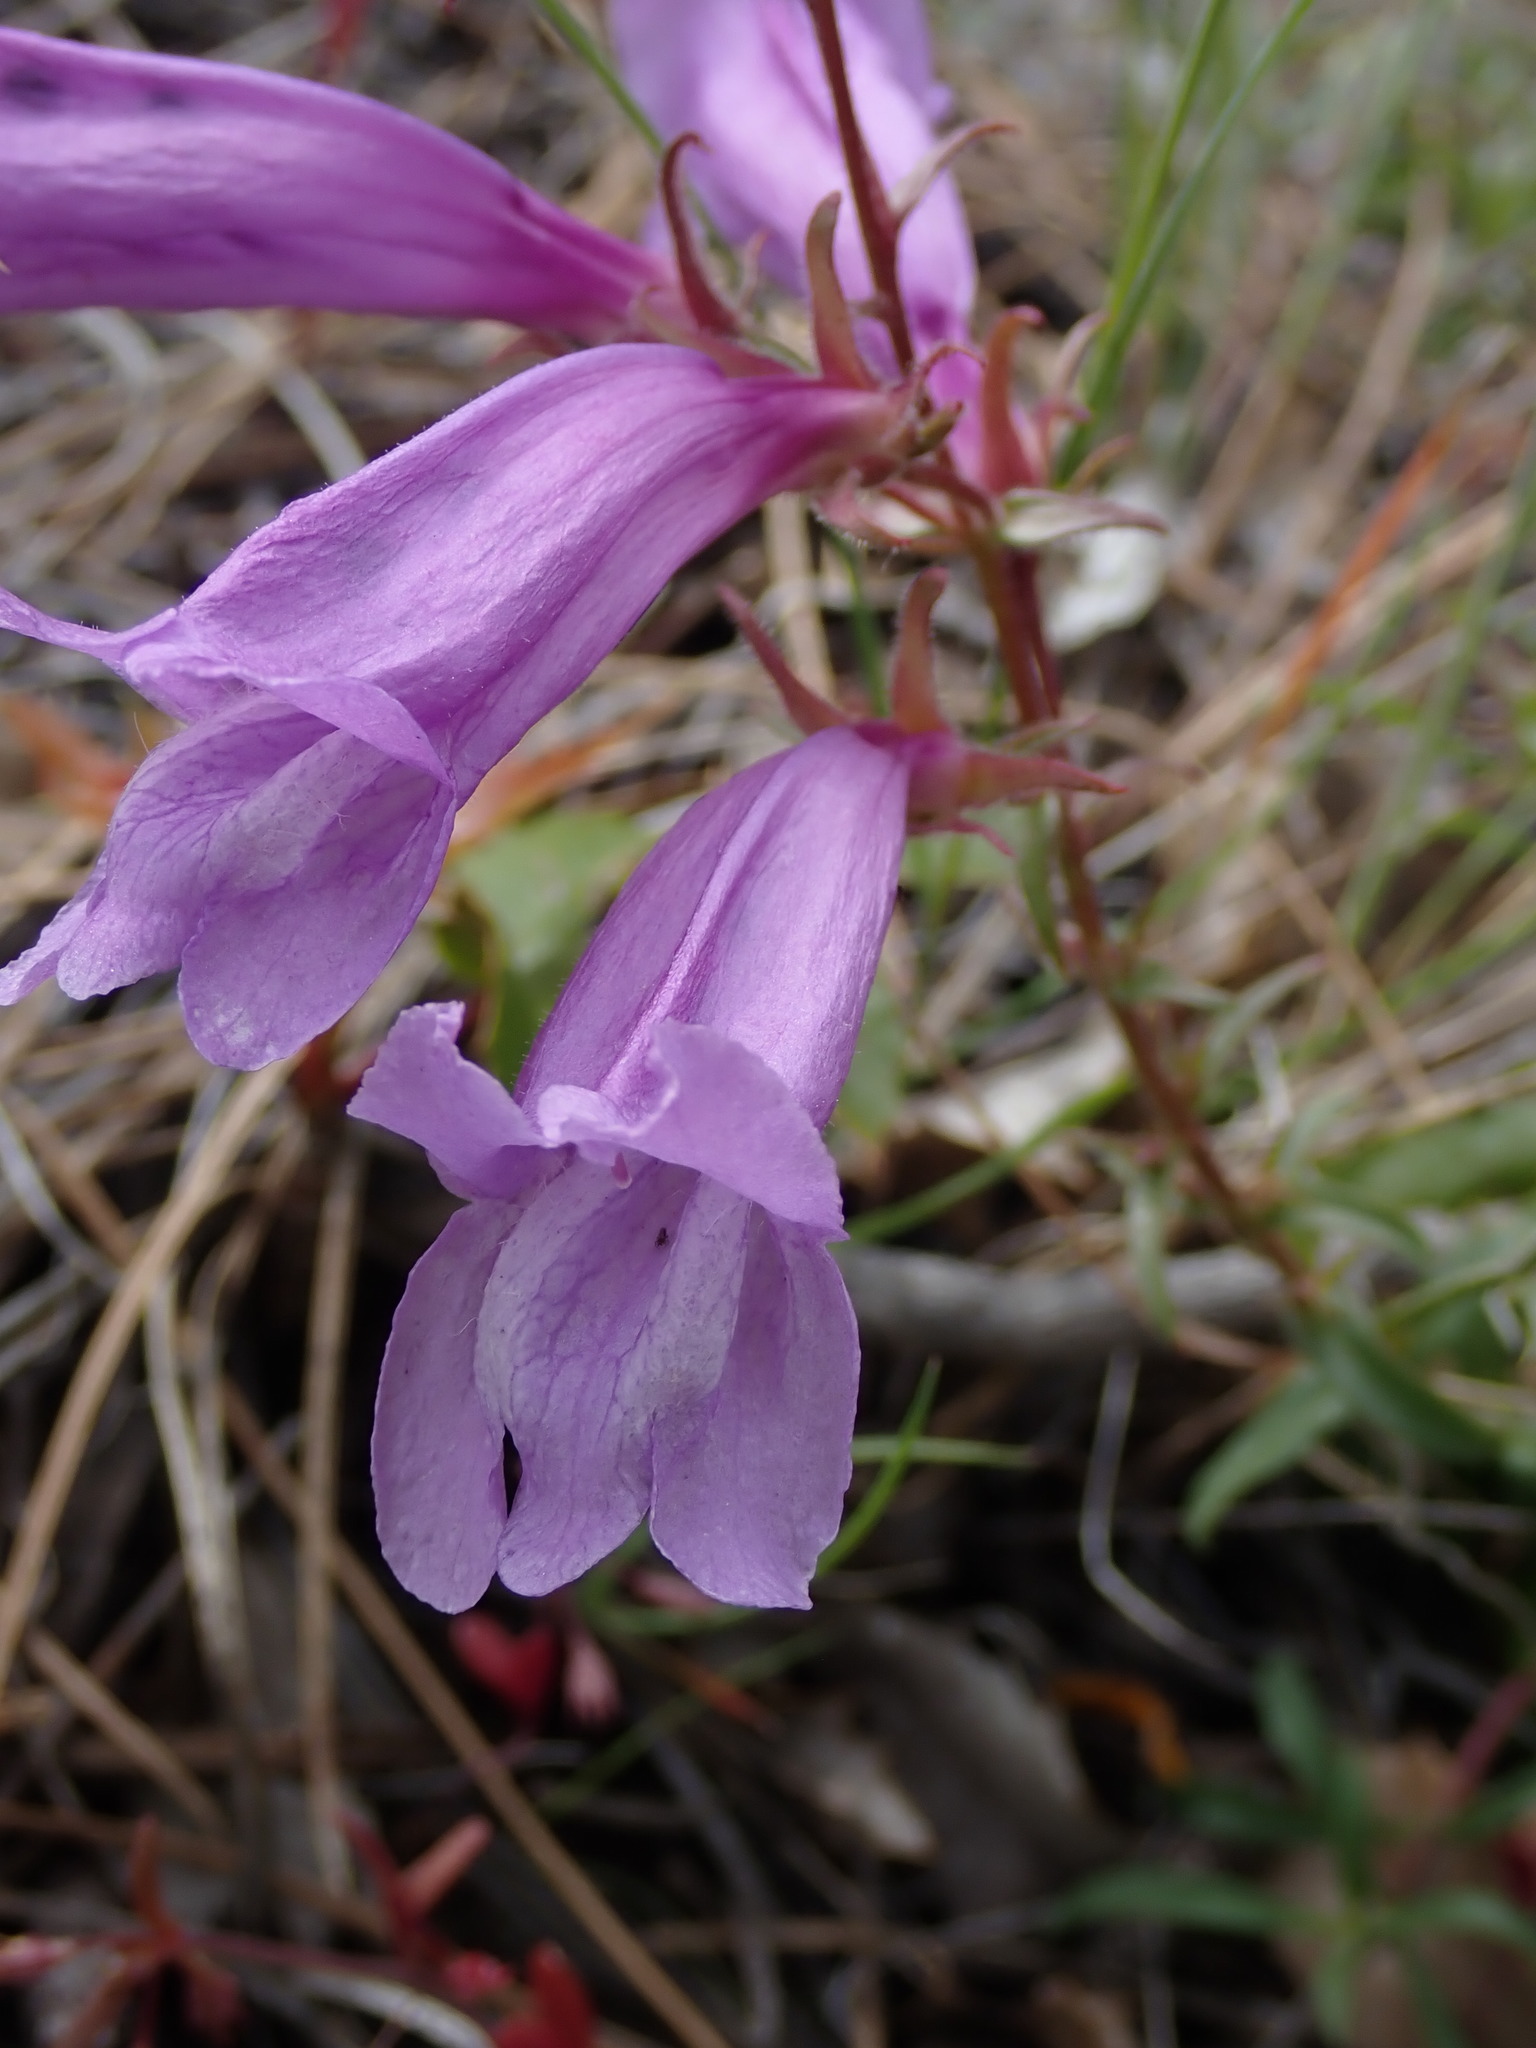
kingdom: Plantae
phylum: Tracheophyta
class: Magnoliopsida
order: Lamiales
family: Plantaginaceae
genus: Penstemon
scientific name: Penstemon fruticosus
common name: Bush penstemon
